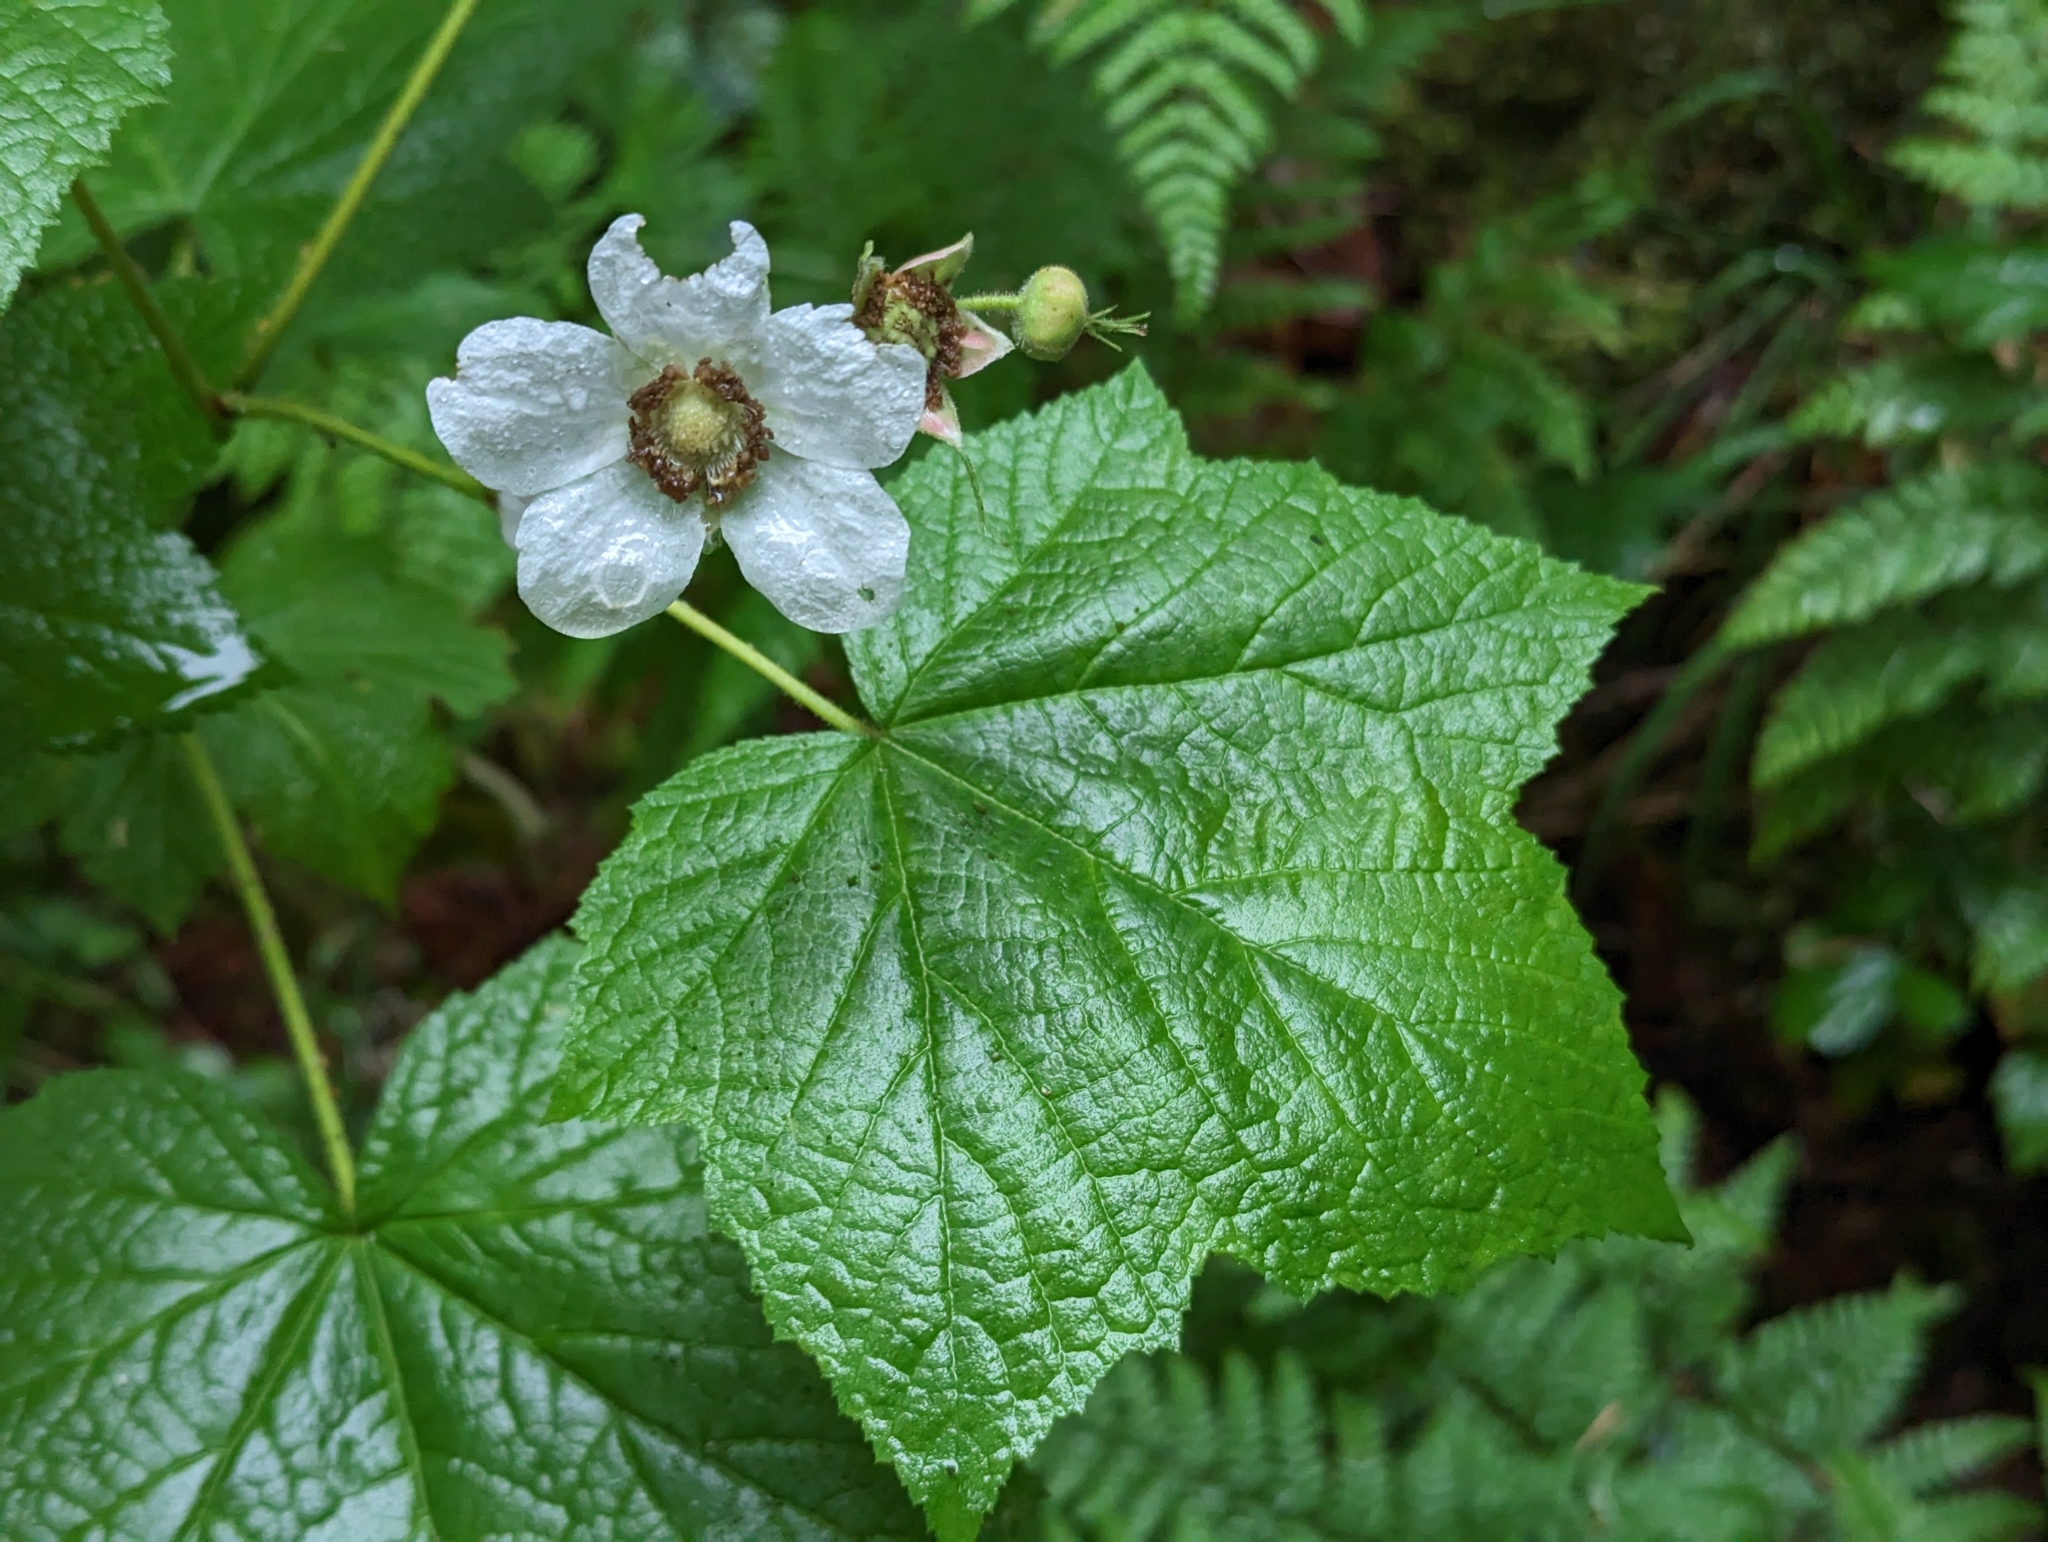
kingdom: Plantae
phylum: Tracheophyta
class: Magnoliopsida
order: Rosales
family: Rosaceae
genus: Rubus
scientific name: Rubus parviflorus
